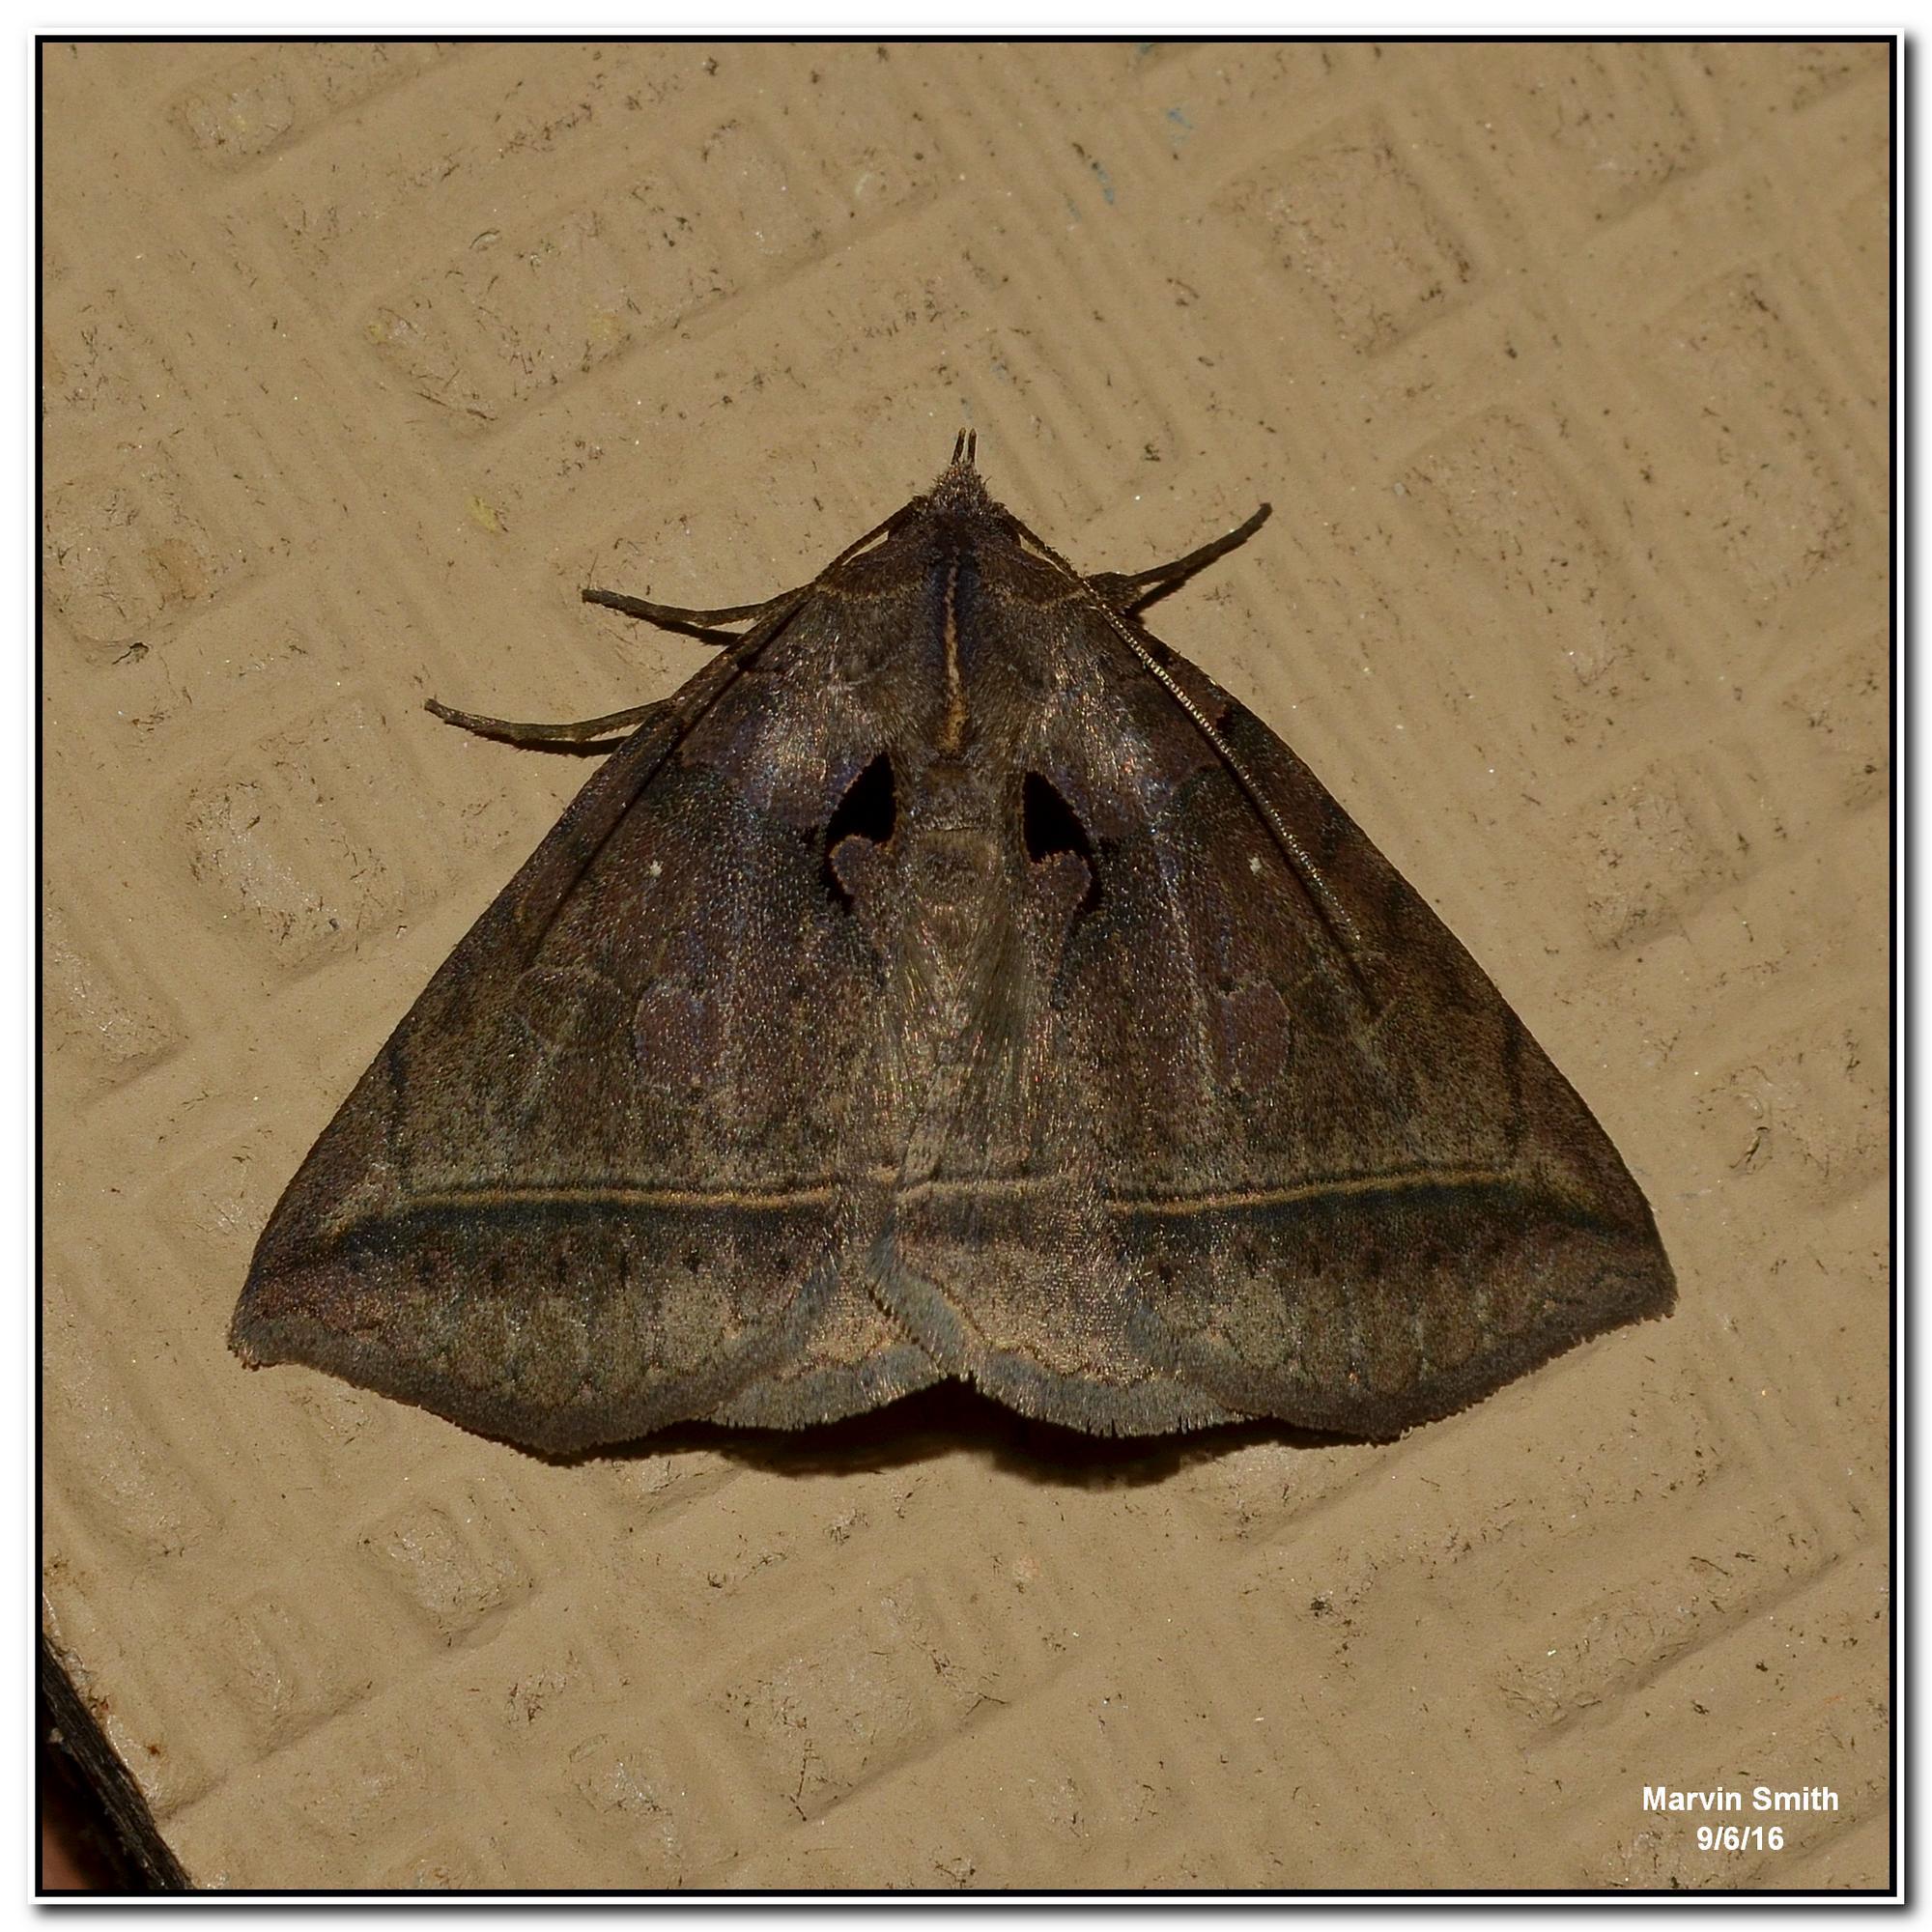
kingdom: Animalia
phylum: Arthropoda
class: Insecta
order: Lepidoptera
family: Erebidae
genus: Celiptera
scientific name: Celiptera frustulum
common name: Black bit moth
